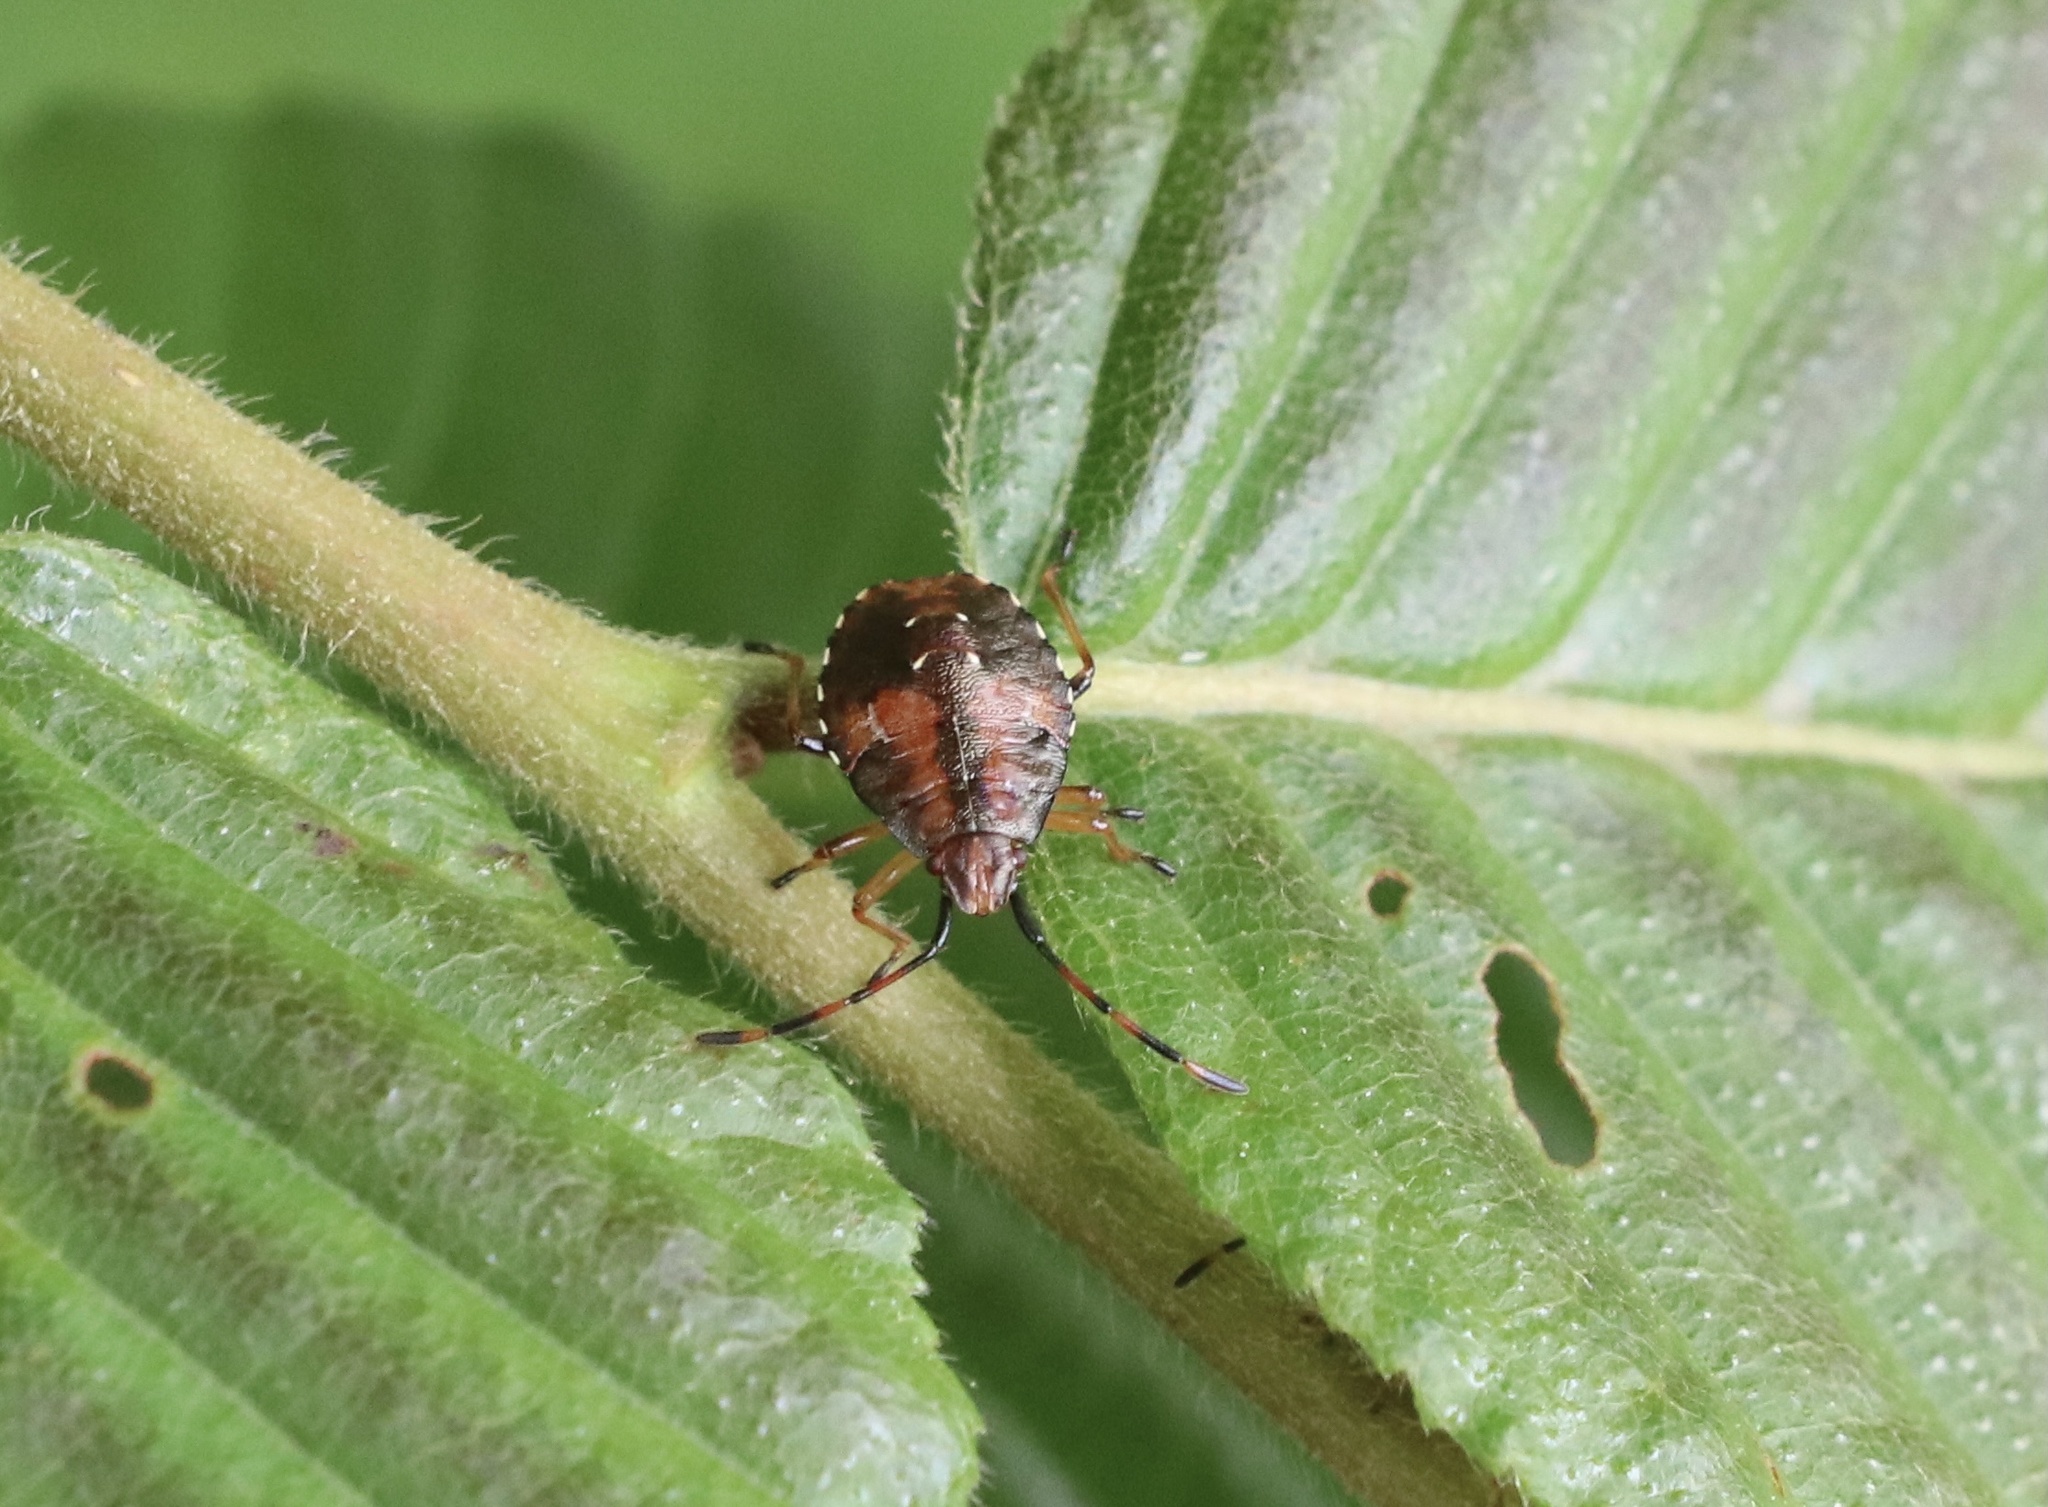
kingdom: Animalia
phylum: Arthropoda
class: Insecta
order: Hemiptera
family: Acanthosomatidae
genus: Planois
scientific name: Planois gayi
